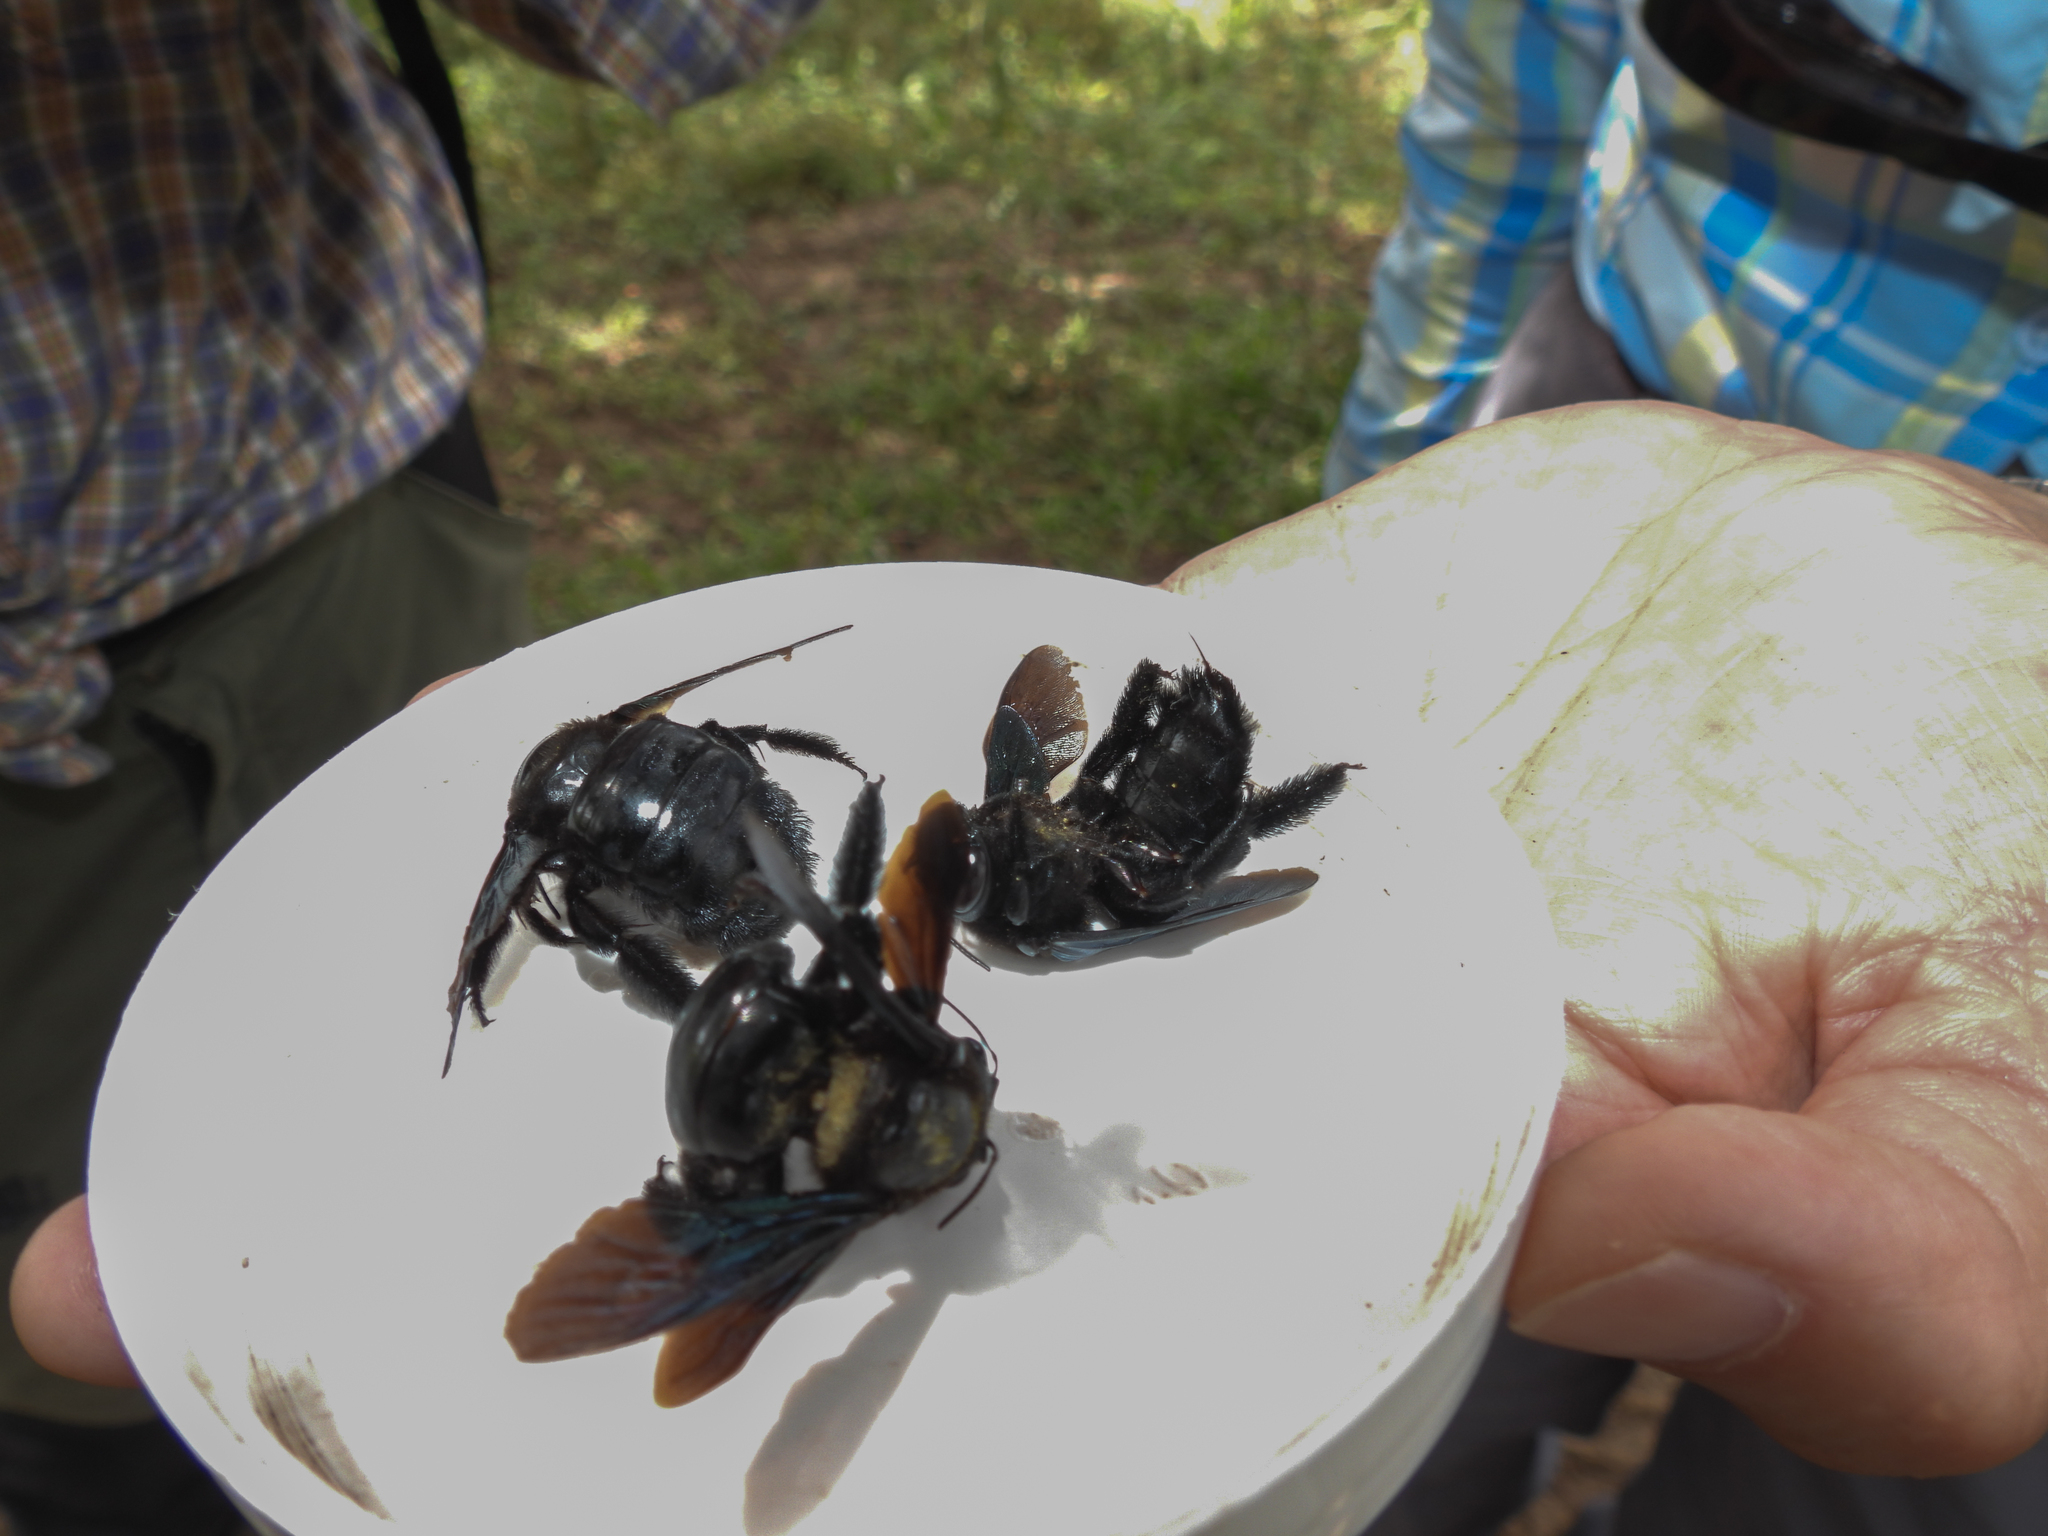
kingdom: Animalia
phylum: Arthropoda
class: Insecta
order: Hymenoptera
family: Apidae
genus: Xylocopa
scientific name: Xylocopa fimbriata
